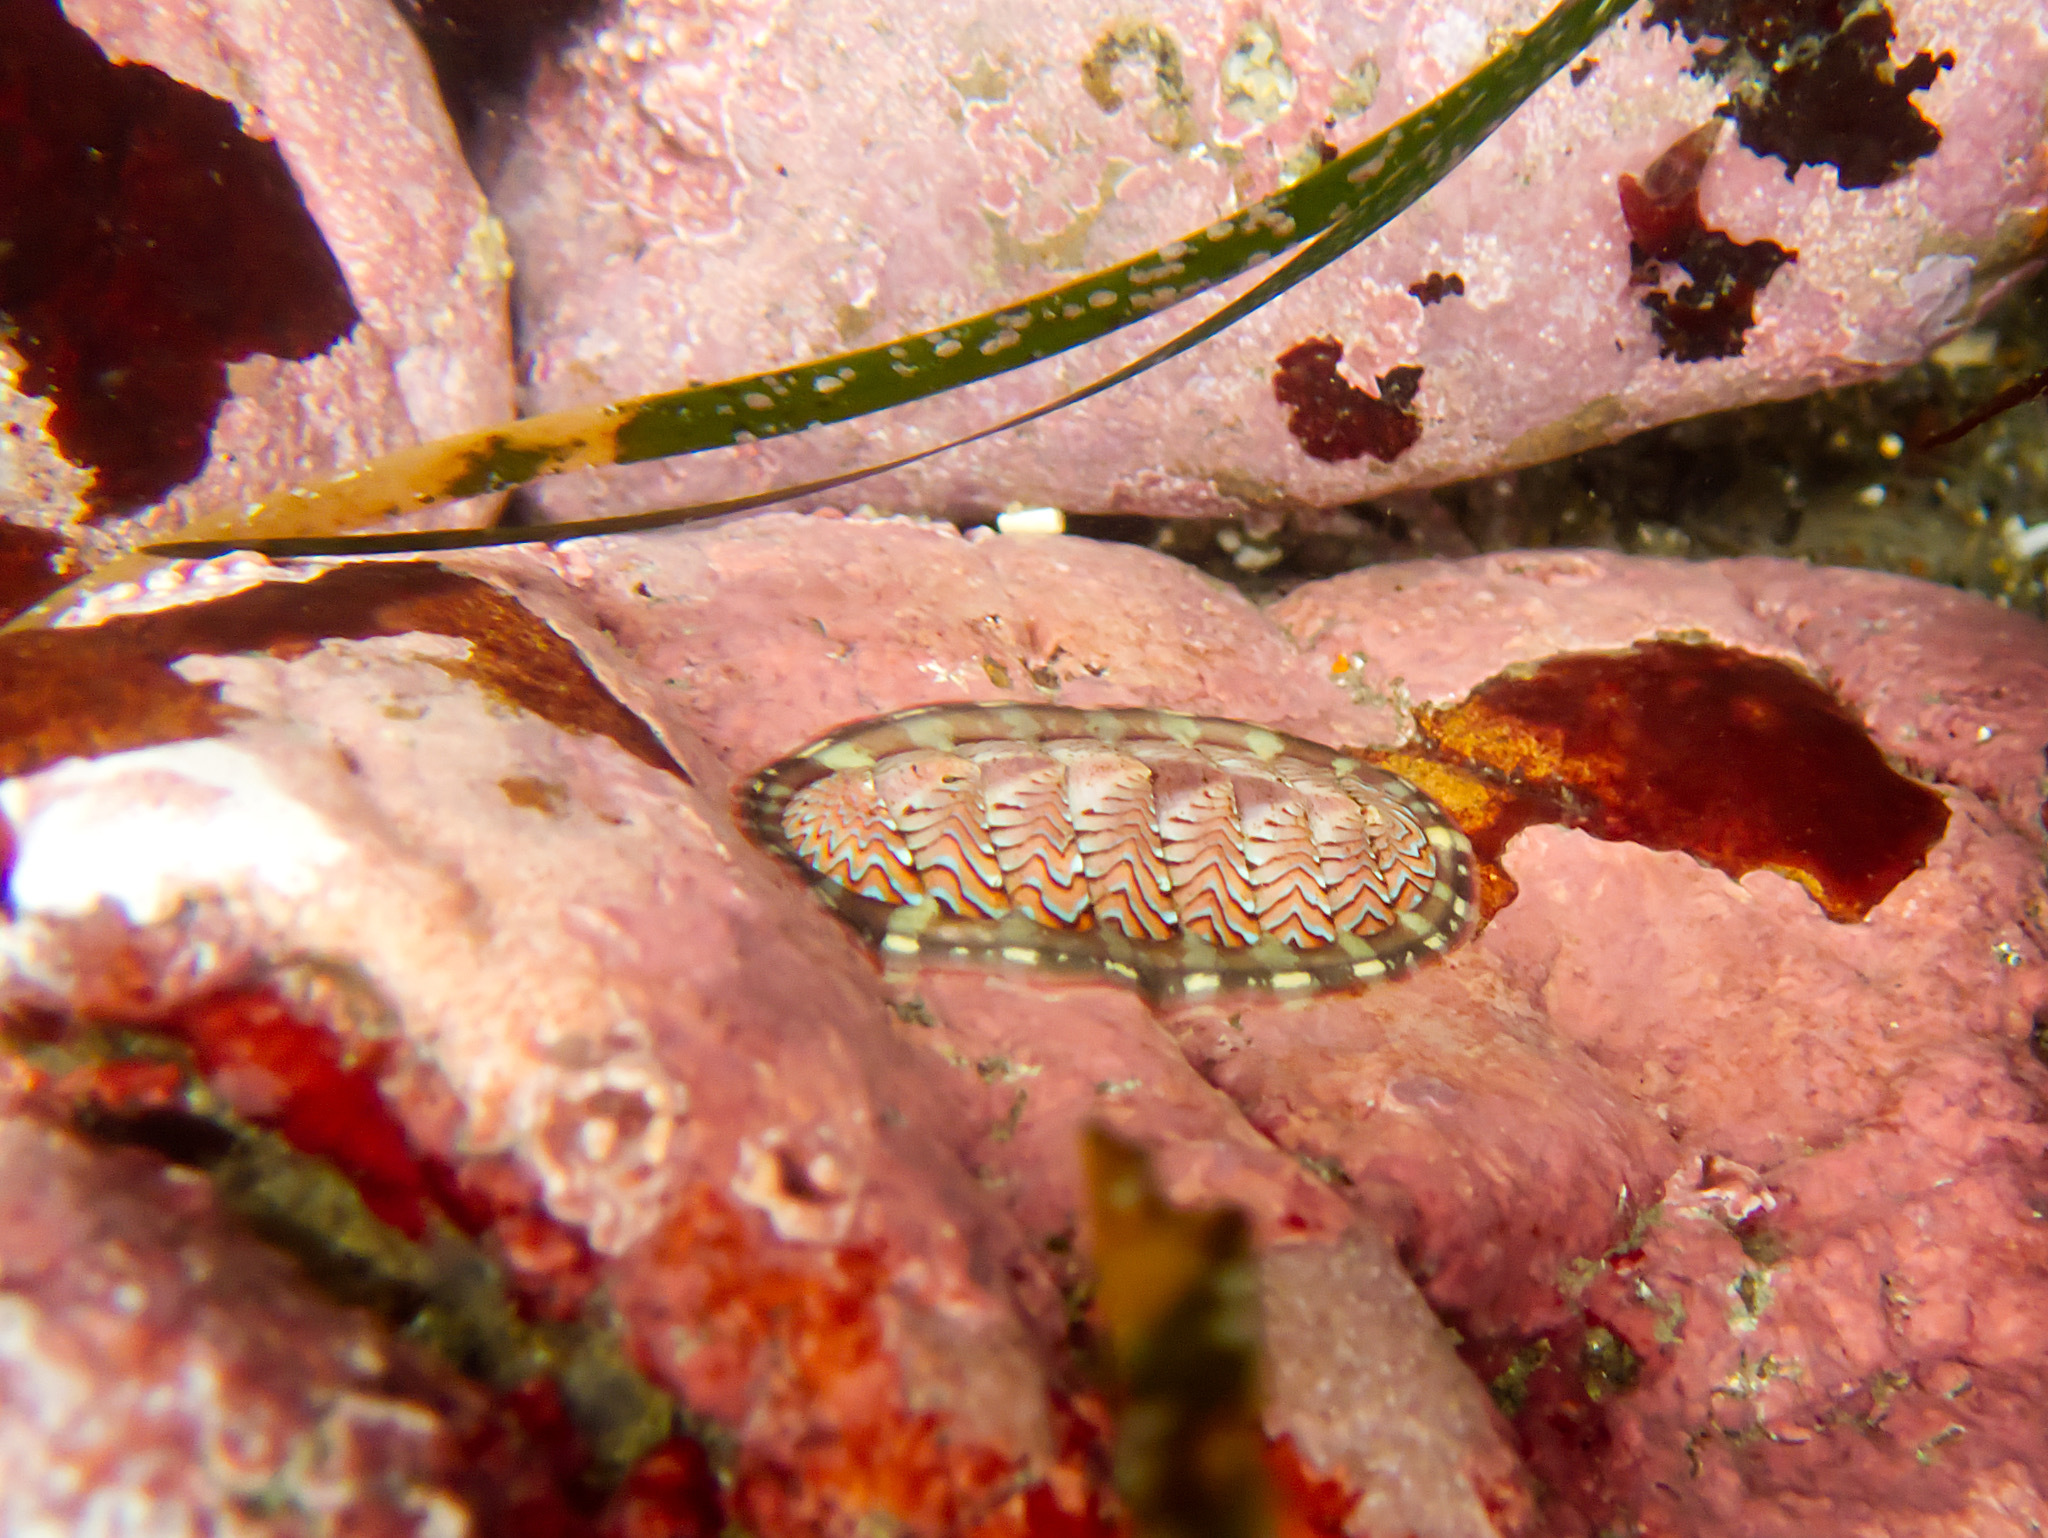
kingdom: Animalia
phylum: Mollusca
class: Polyplacophora
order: Chitonida
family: Tonicellidae
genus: Tonicella
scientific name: Tonicella lokii
